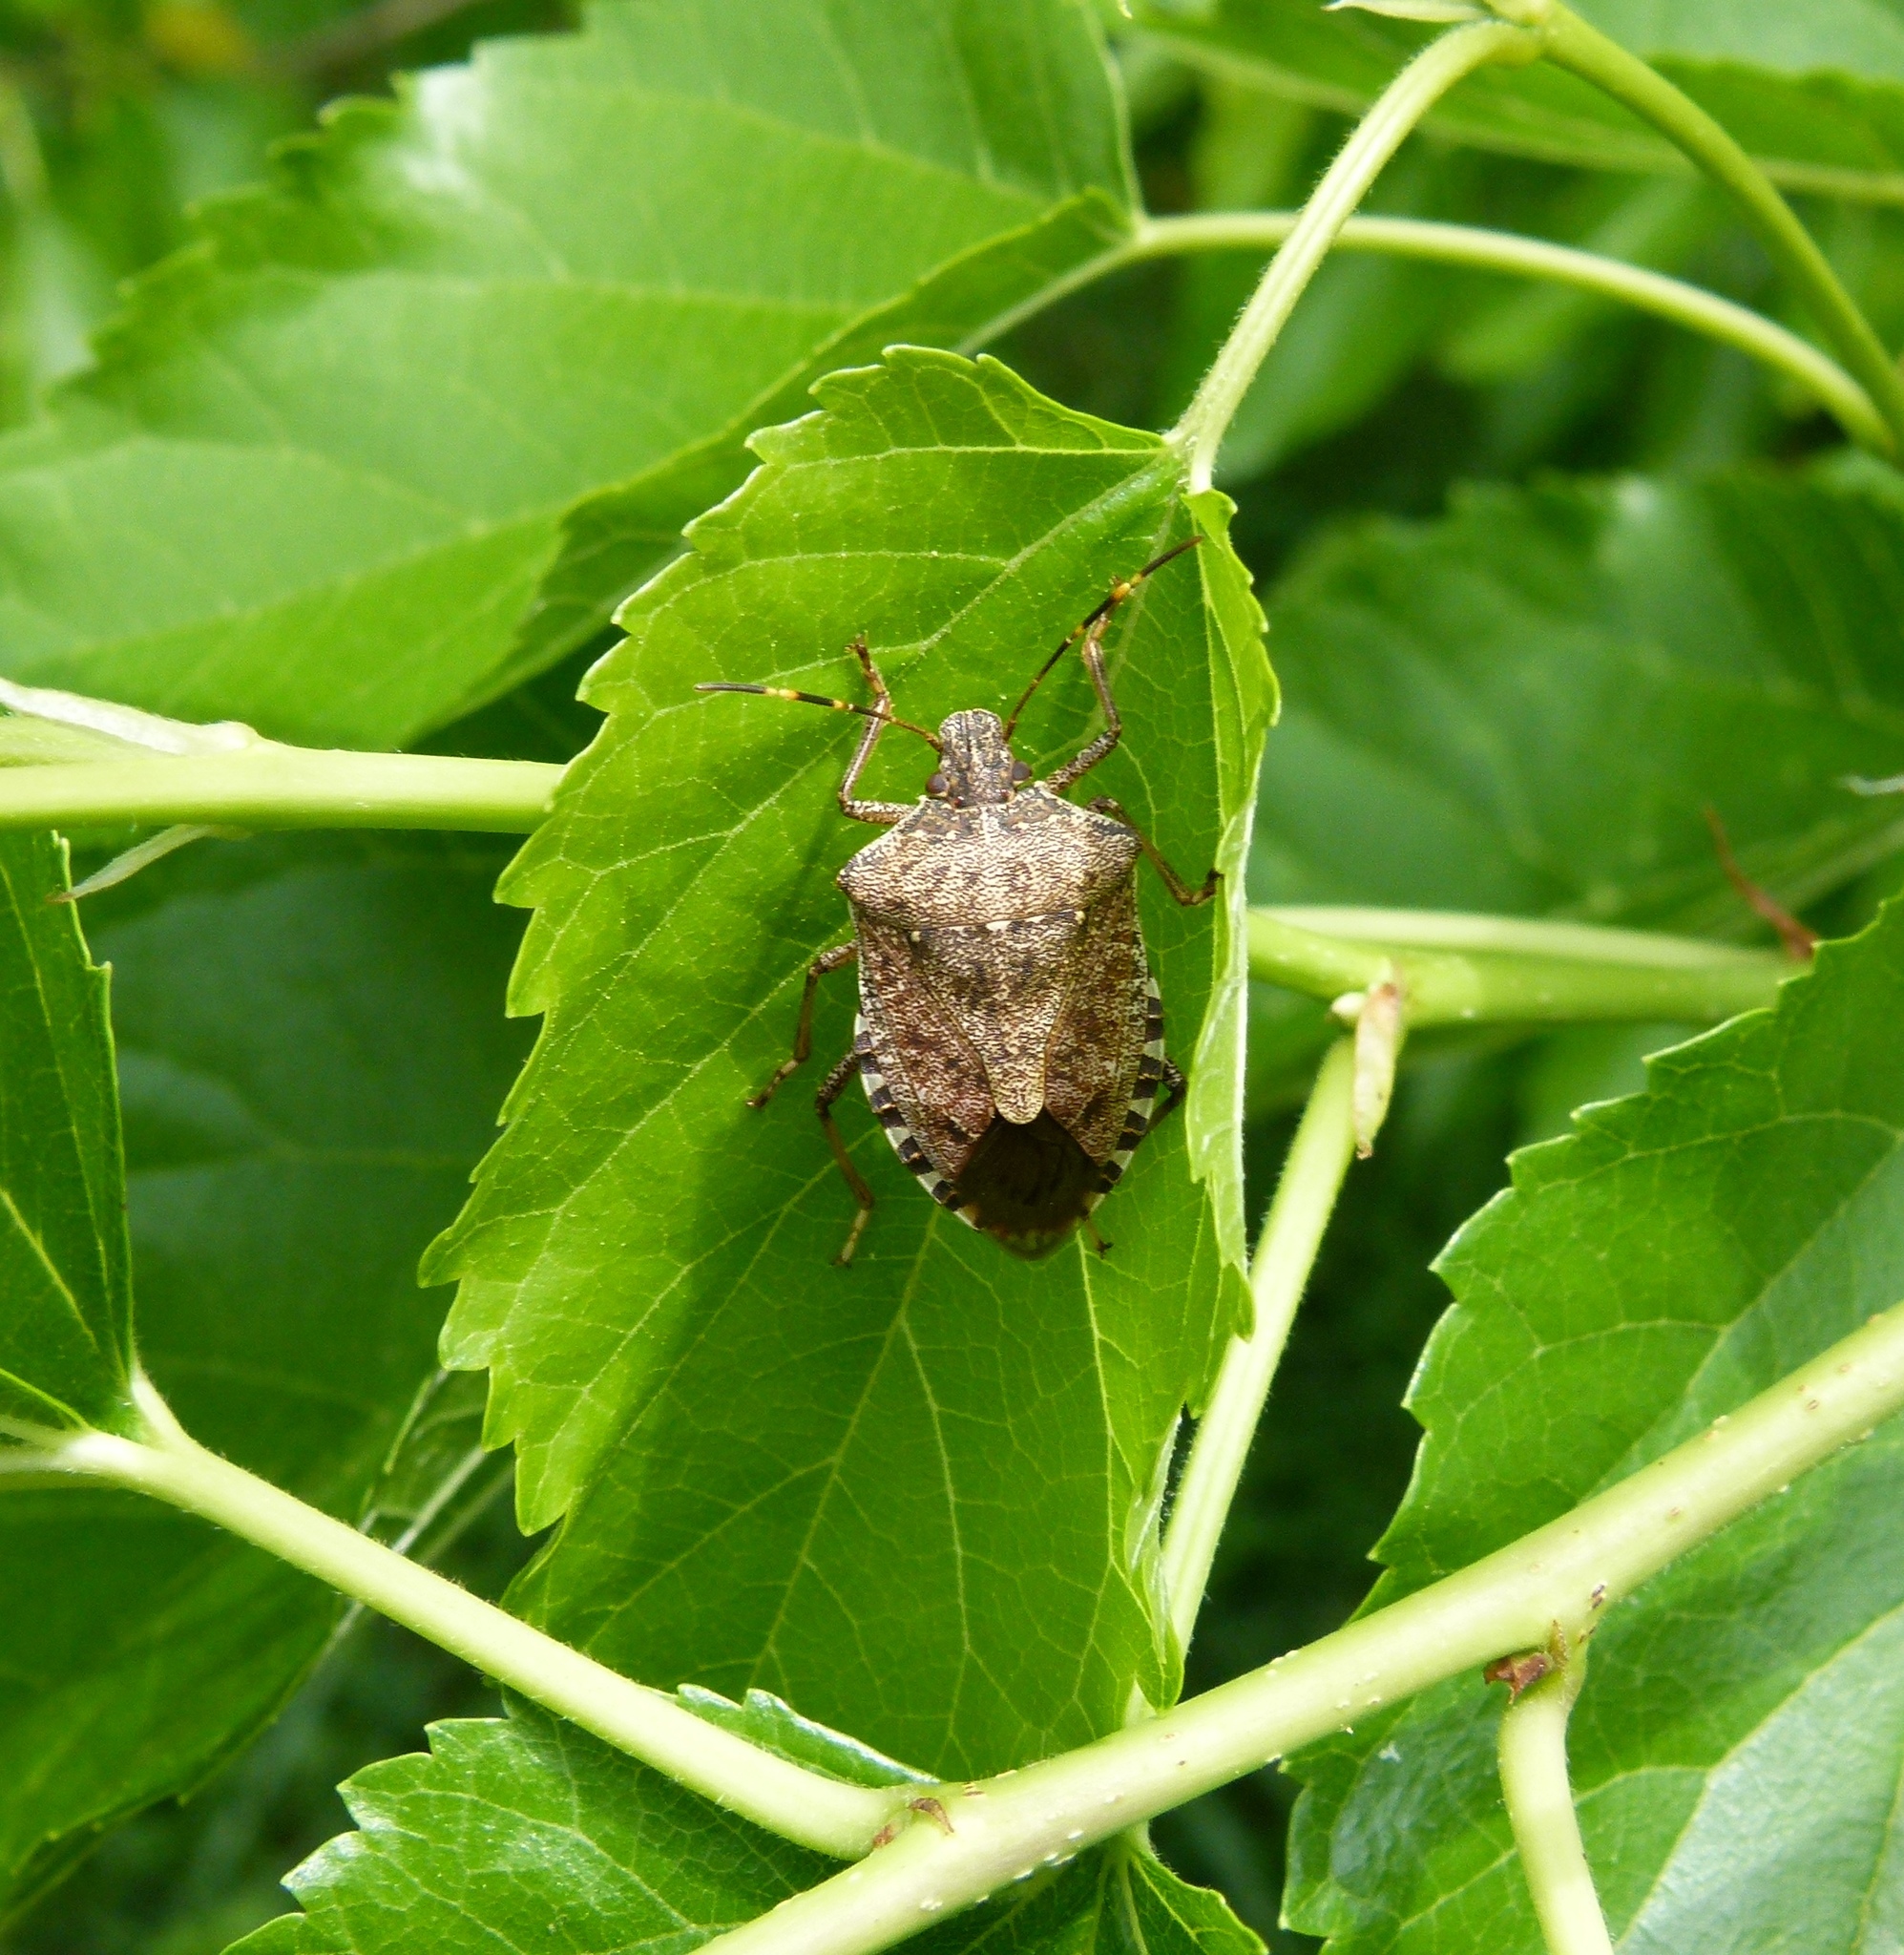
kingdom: Animalia
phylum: Arthropoda
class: Insecta
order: Hemiptera
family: Pentatomidae
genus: Halyomorpha
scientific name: Halyomorpha halys
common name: Brown marmorated stink bug
